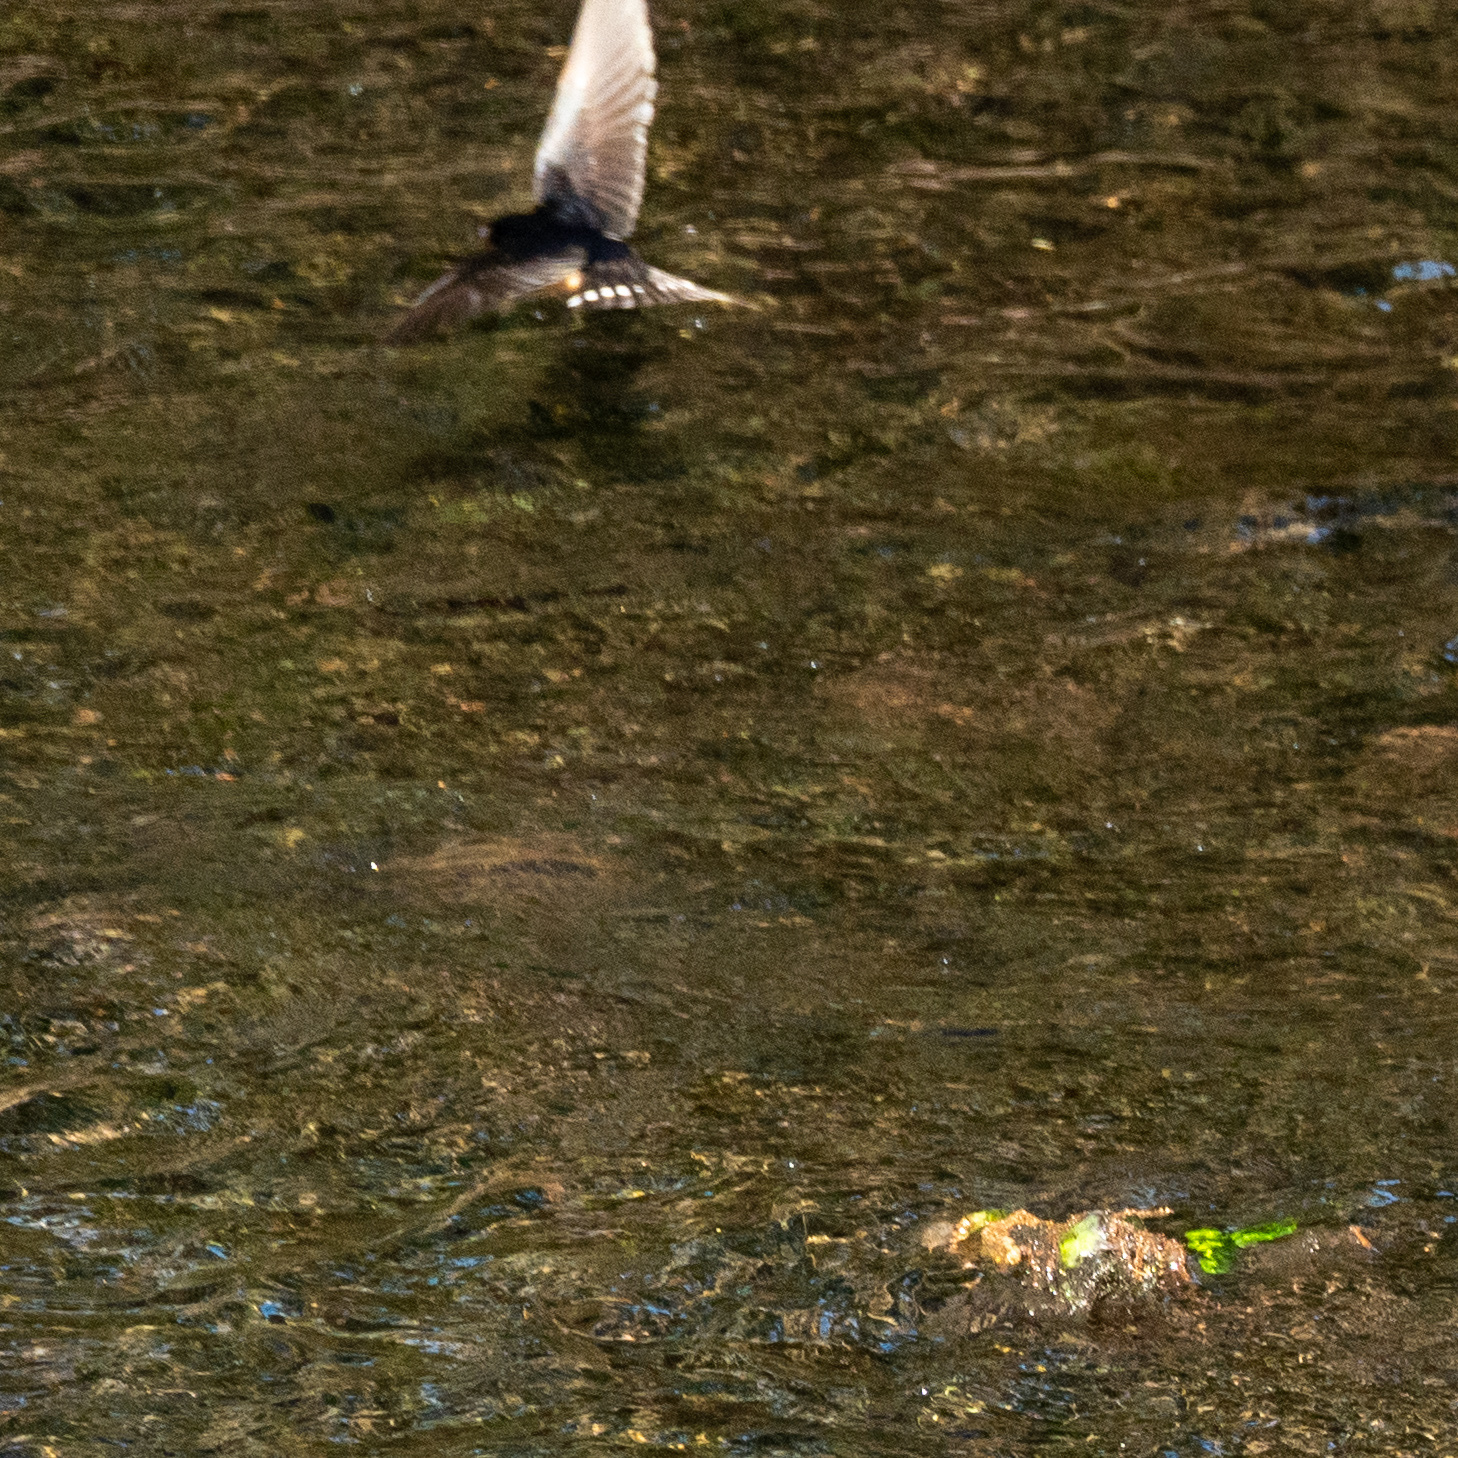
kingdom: Animalia
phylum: Chordata
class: Aves
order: Passeriformes
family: Hirundinidae
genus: Hirundo
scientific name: Hirundo rustica
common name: Barn swallow
